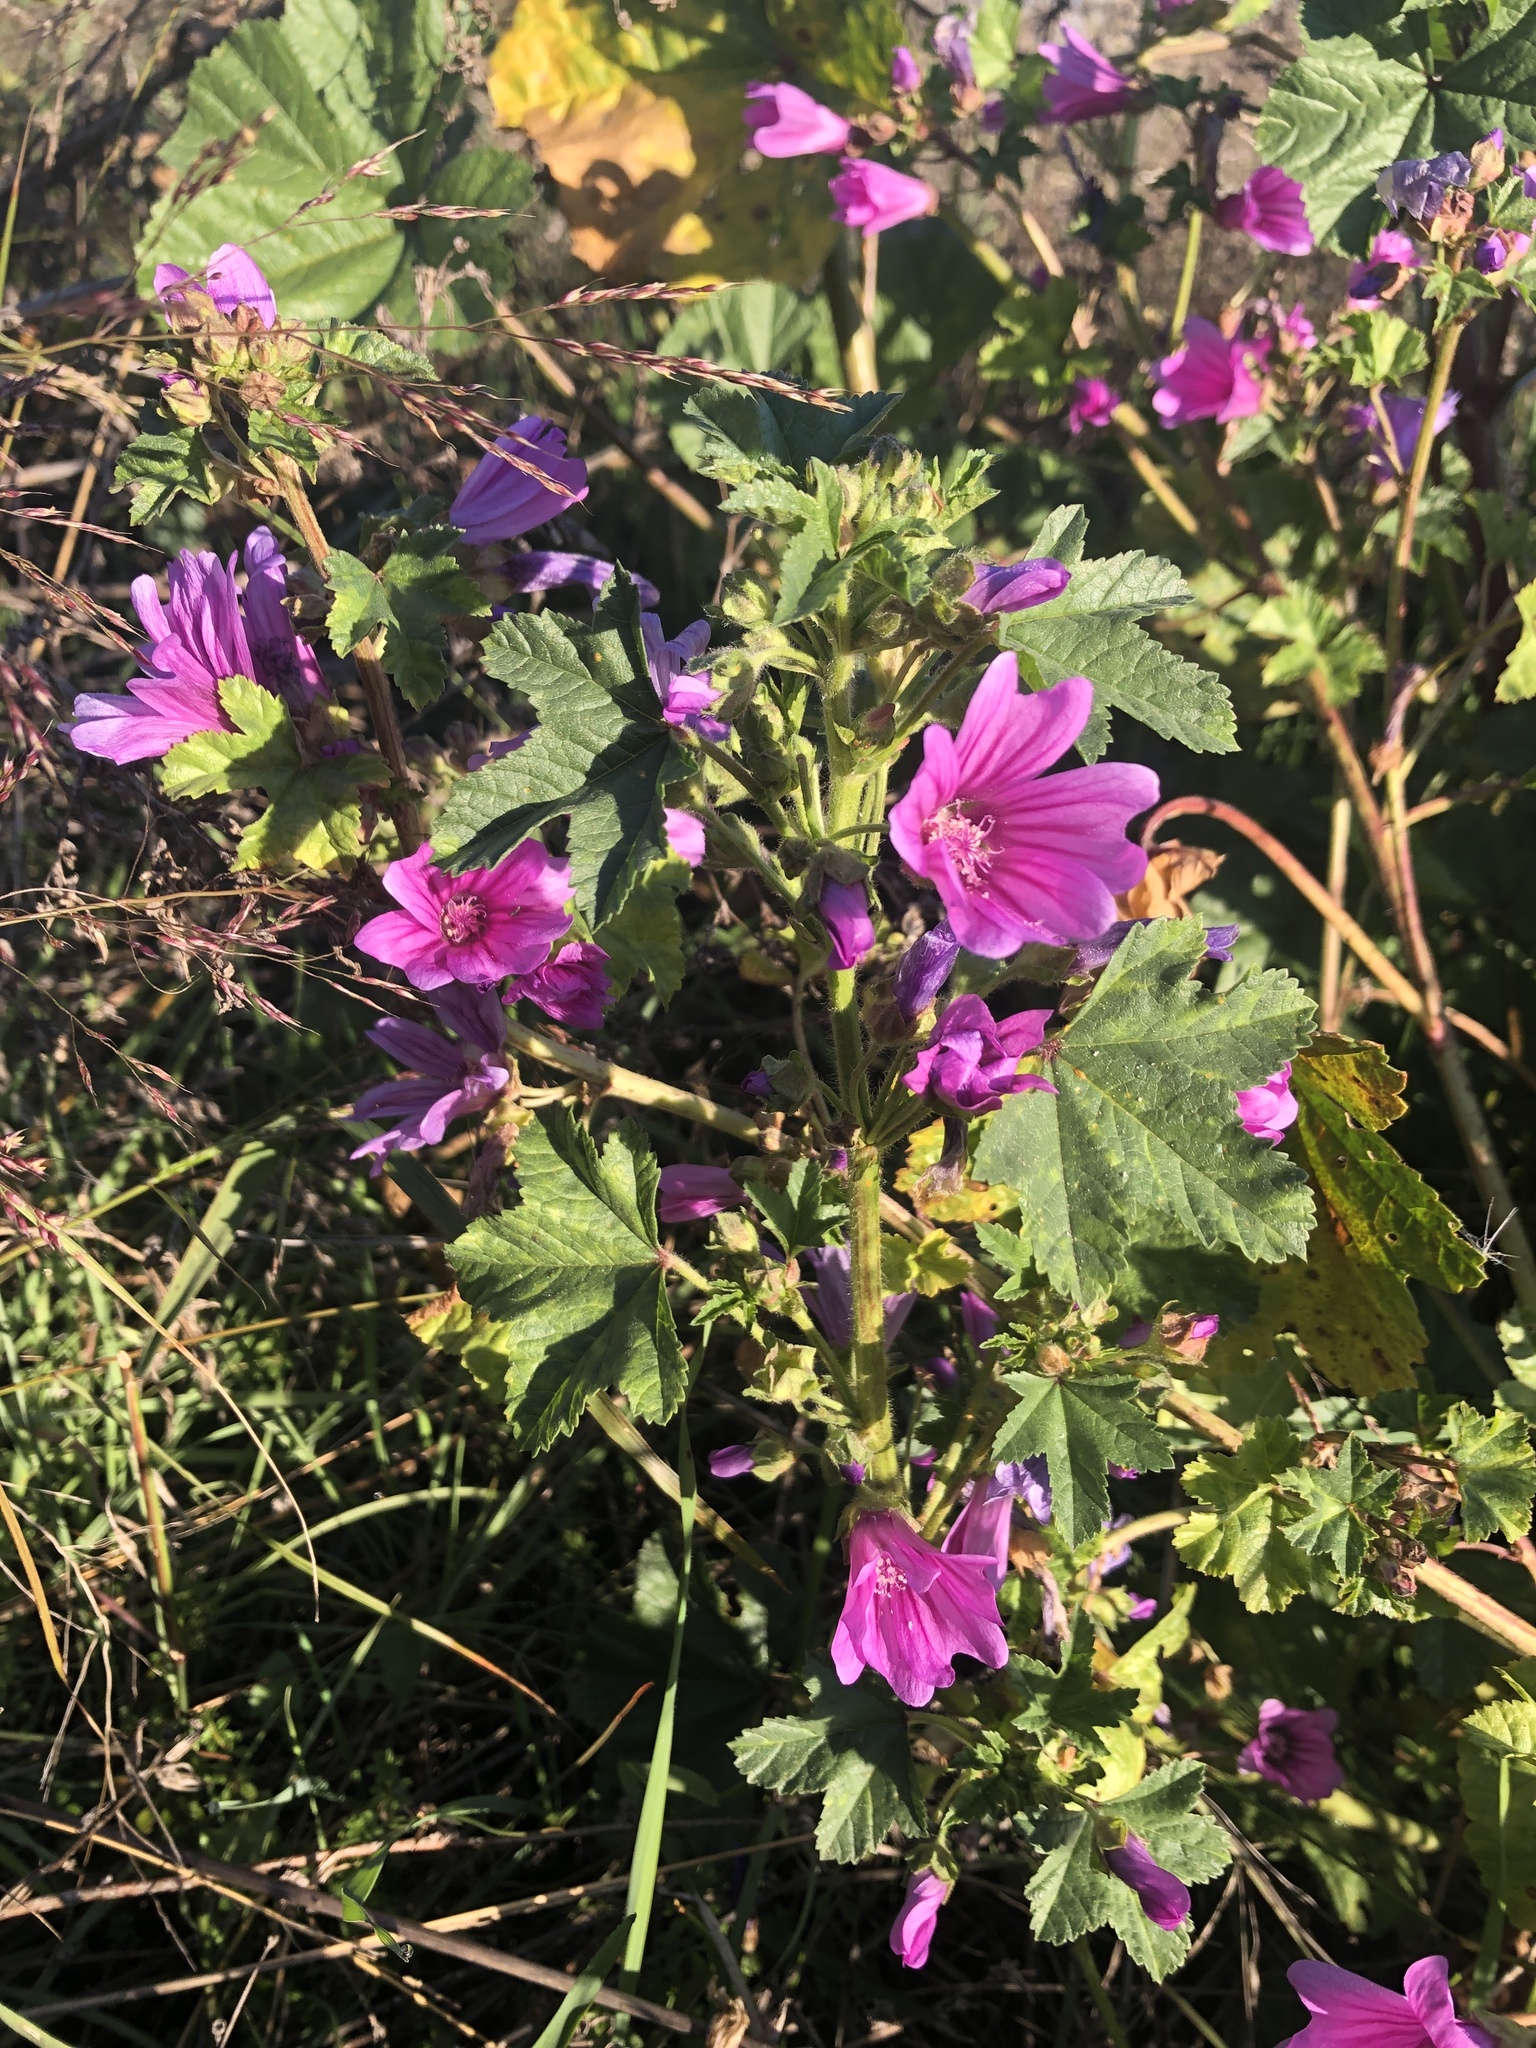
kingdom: Plantae
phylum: Tracheophyta
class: Magnoliopsida
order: Malvales
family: Malvaceae
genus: Malva
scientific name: Malva sylvestris
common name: Common mallow
